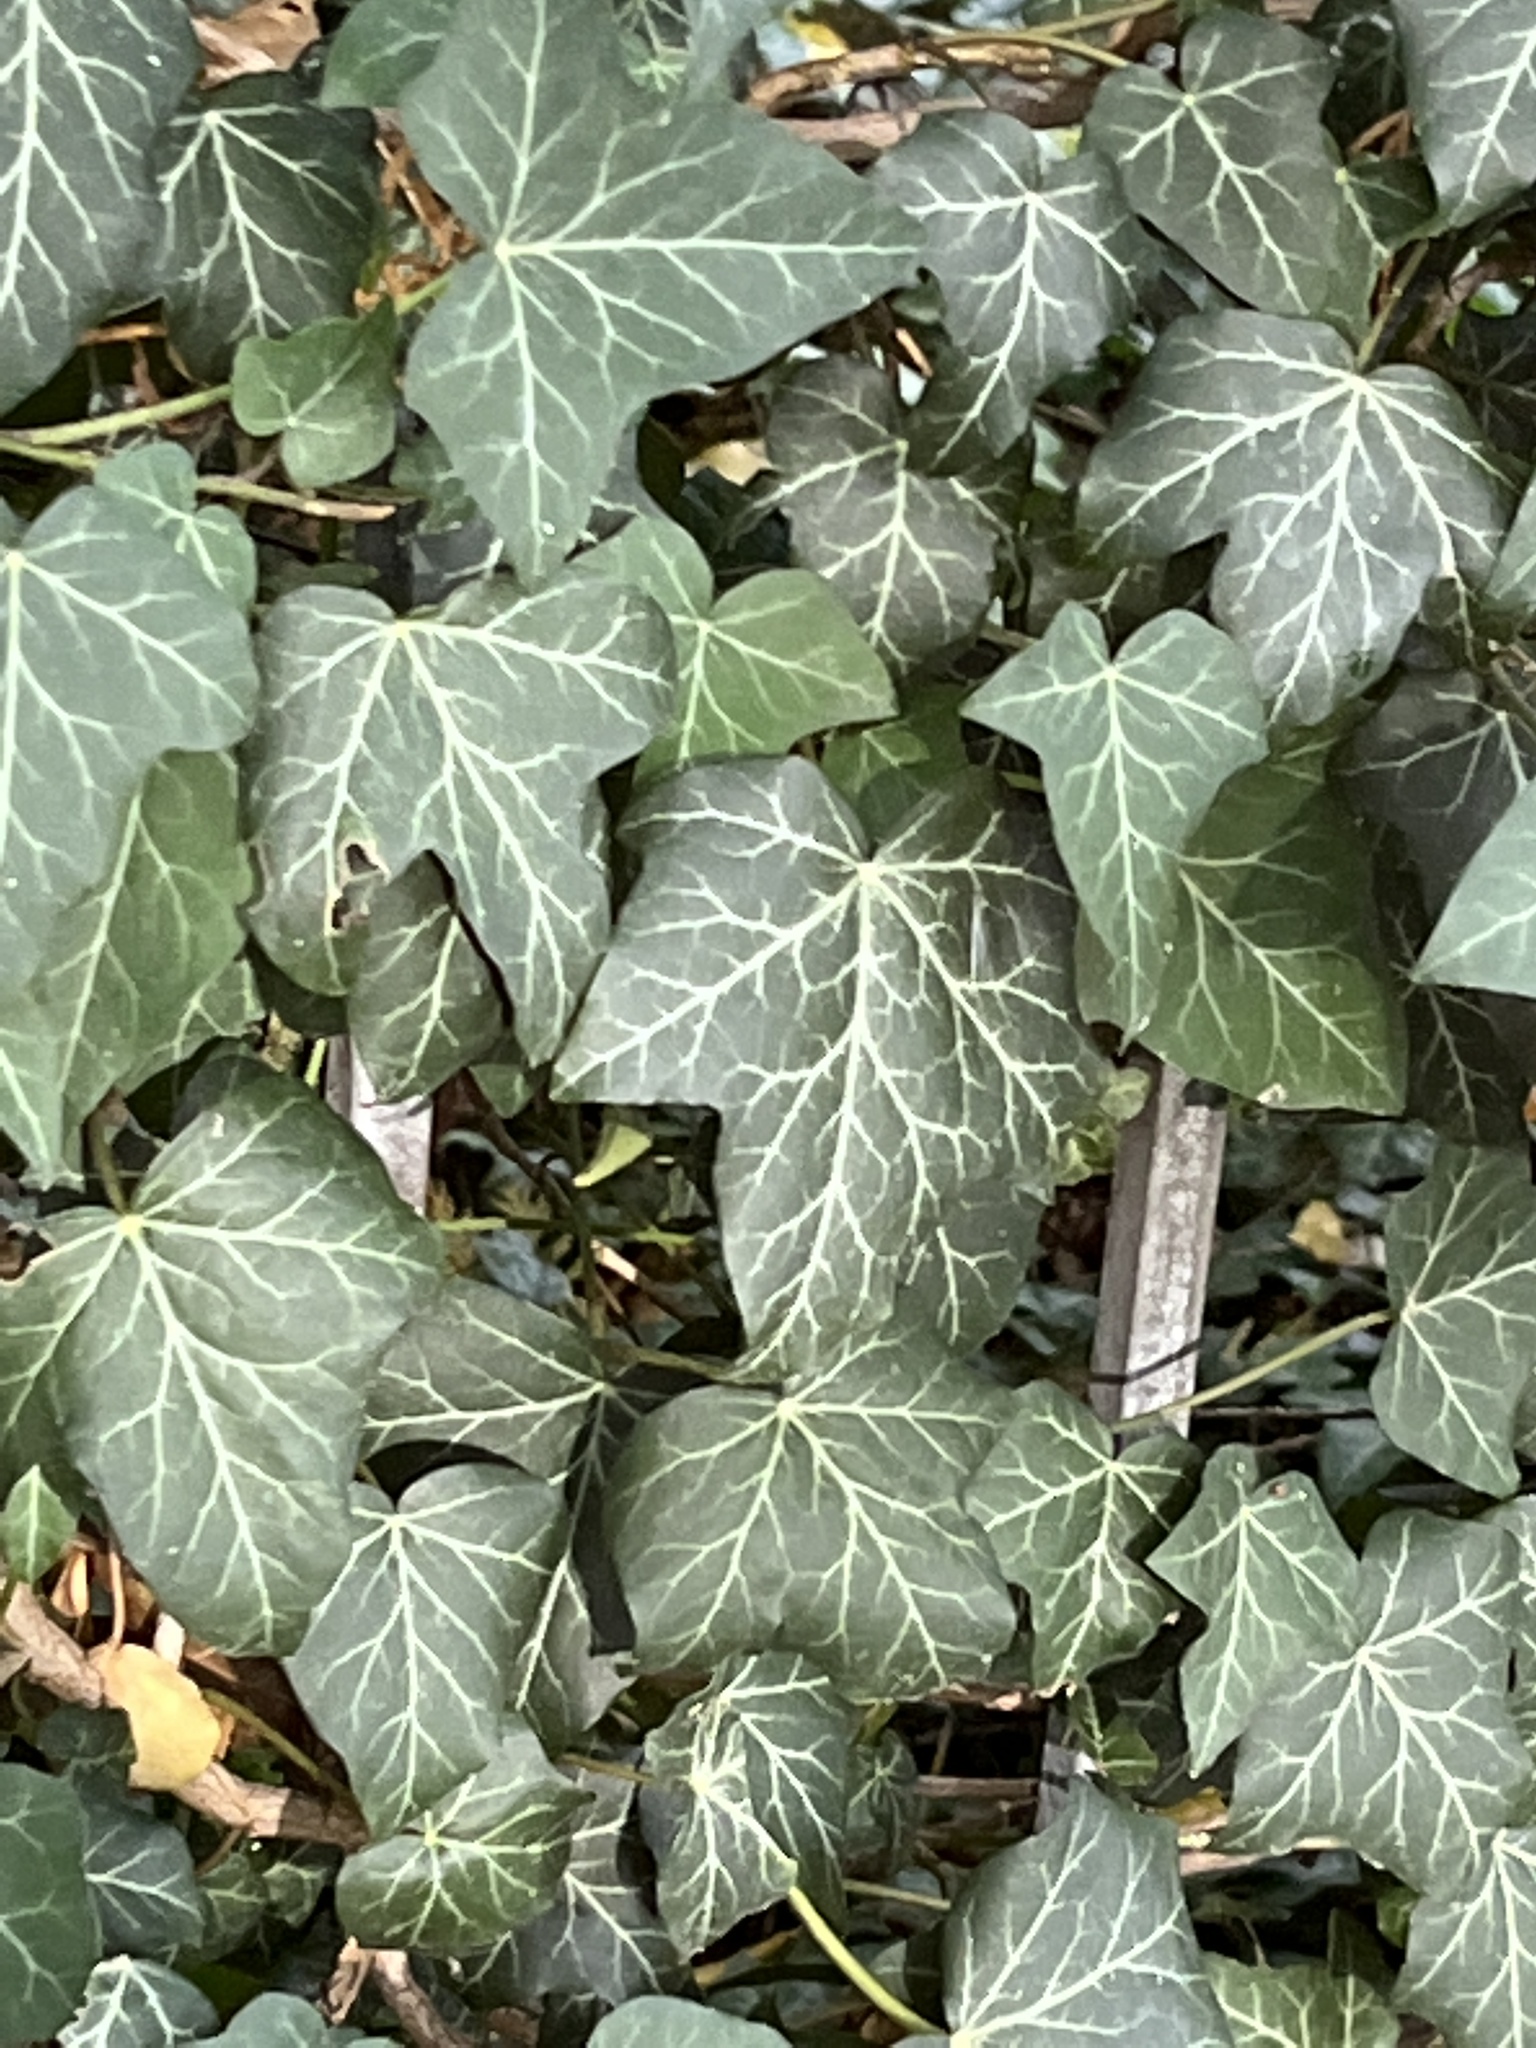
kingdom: Plantae
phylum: Tracheophyta
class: Magnoliopsida
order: Apiales
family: Araliaceae
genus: Hedera
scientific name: Hedera helix
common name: Ivy
